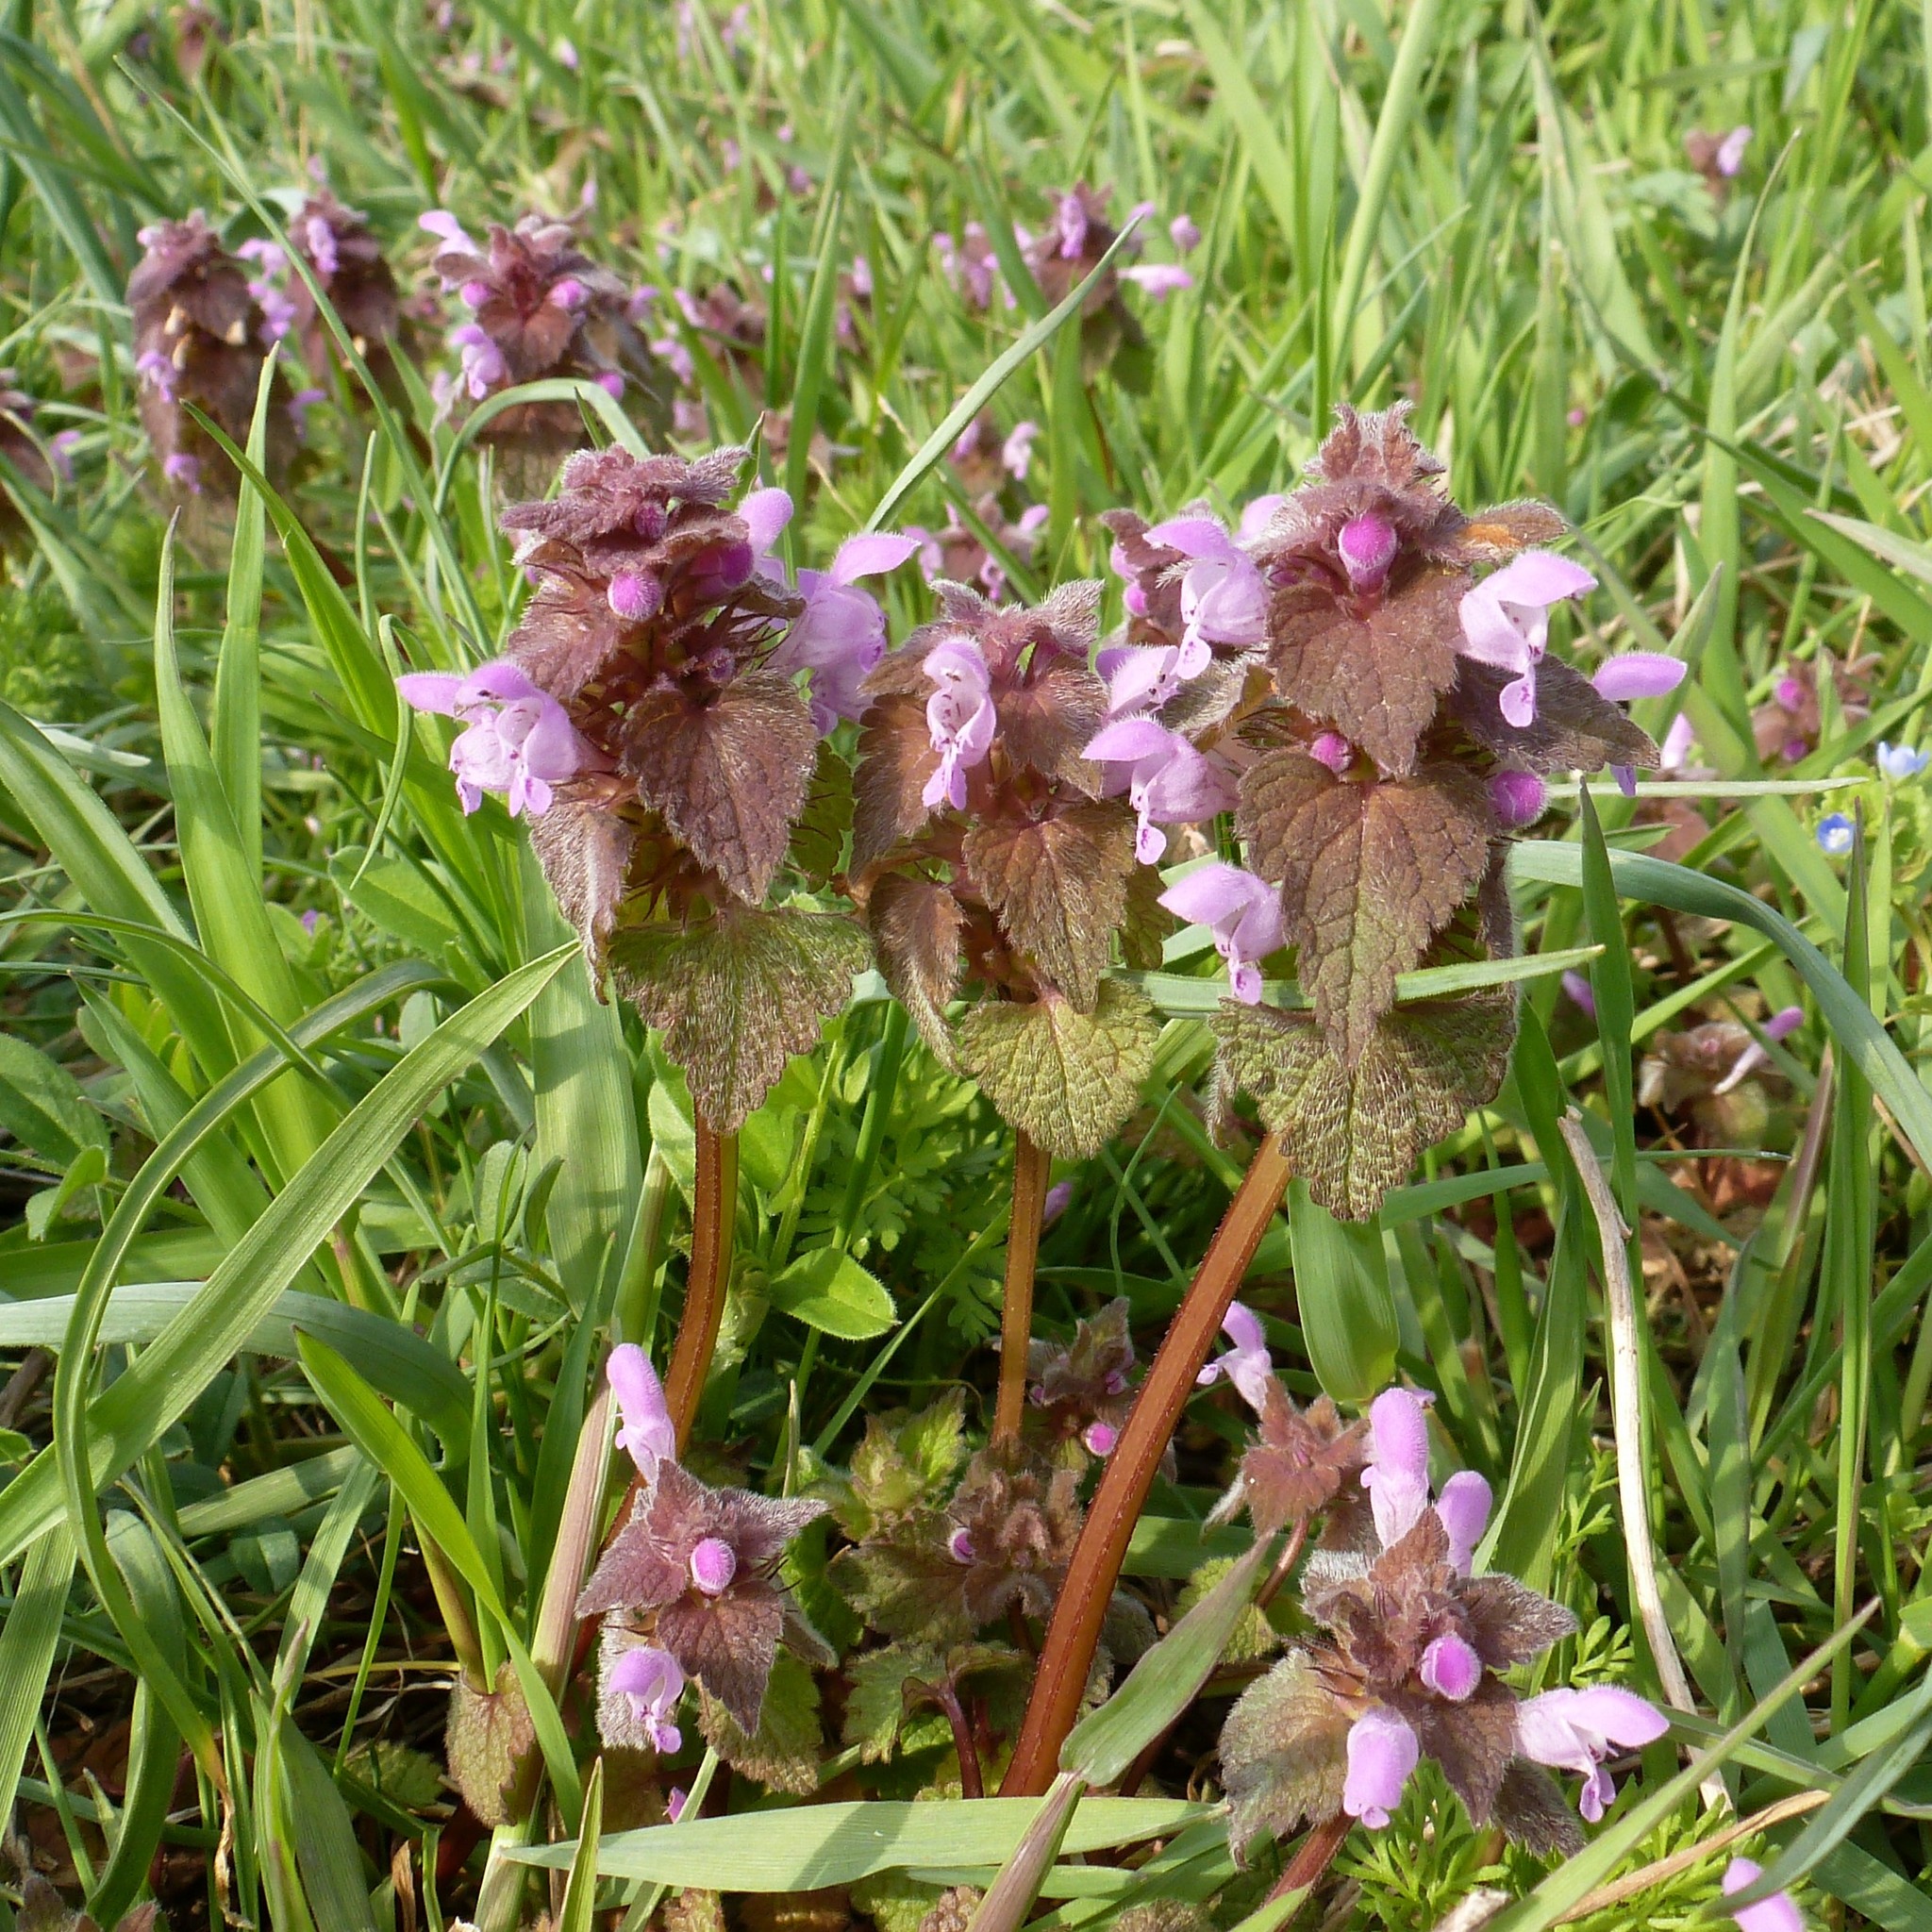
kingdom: Plantae
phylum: Tracheophyta
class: Magnoliopsida
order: Lamiales
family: Lamiaceae
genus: Lamium
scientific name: Lamium purpureum
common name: Red dead-nettle
